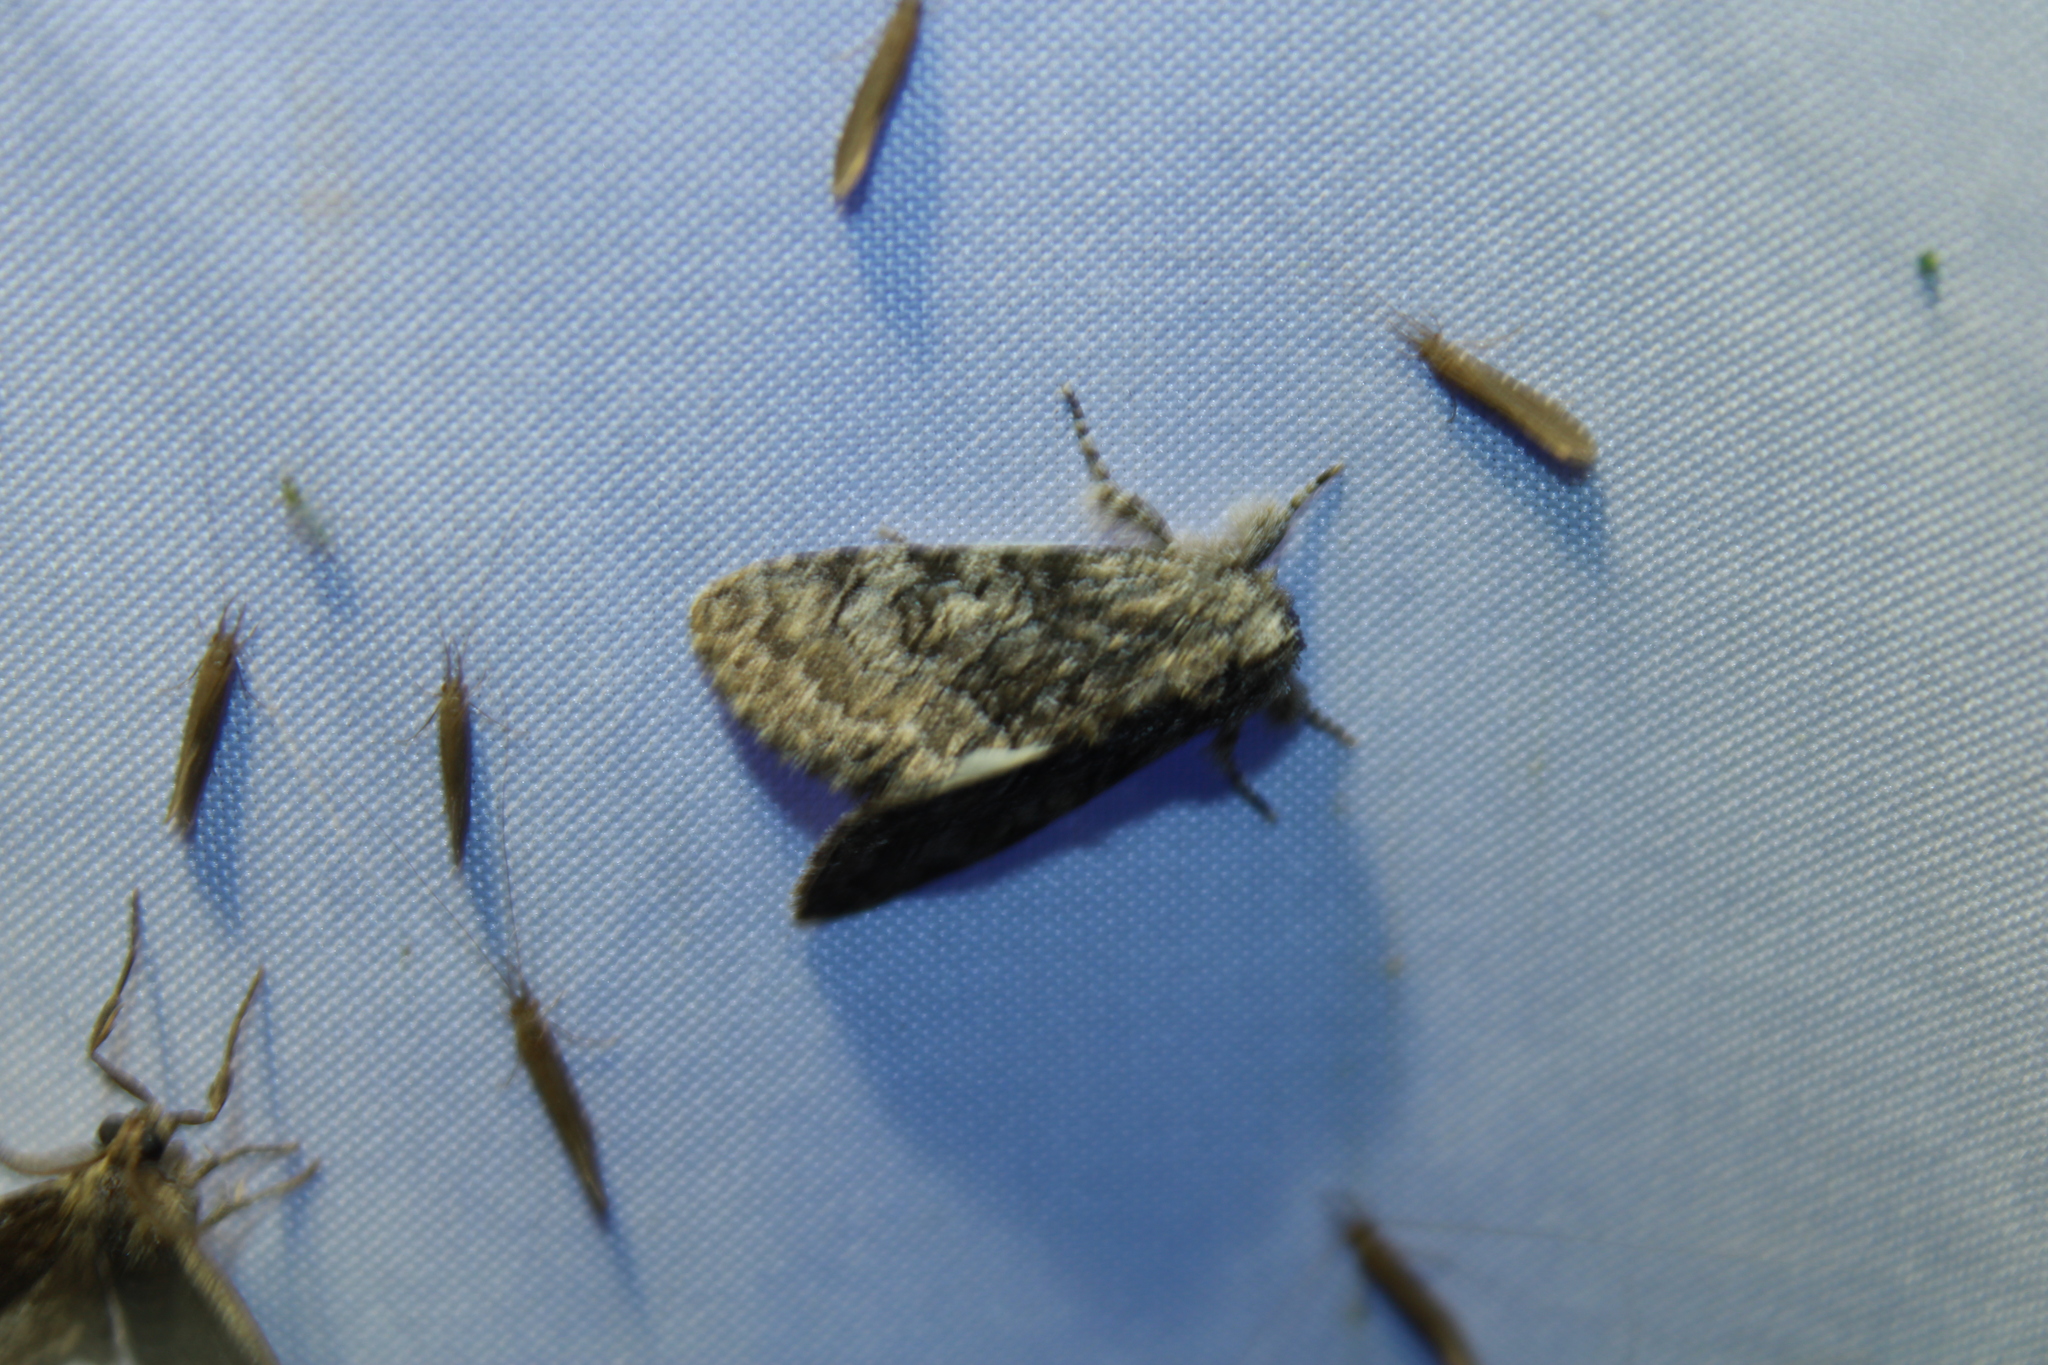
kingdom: Animalia
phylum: Arthropoda
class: Insecta
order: Lepidoptera
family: Noctuidae
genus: Raphia
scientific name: Raphia frater
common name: Brother
